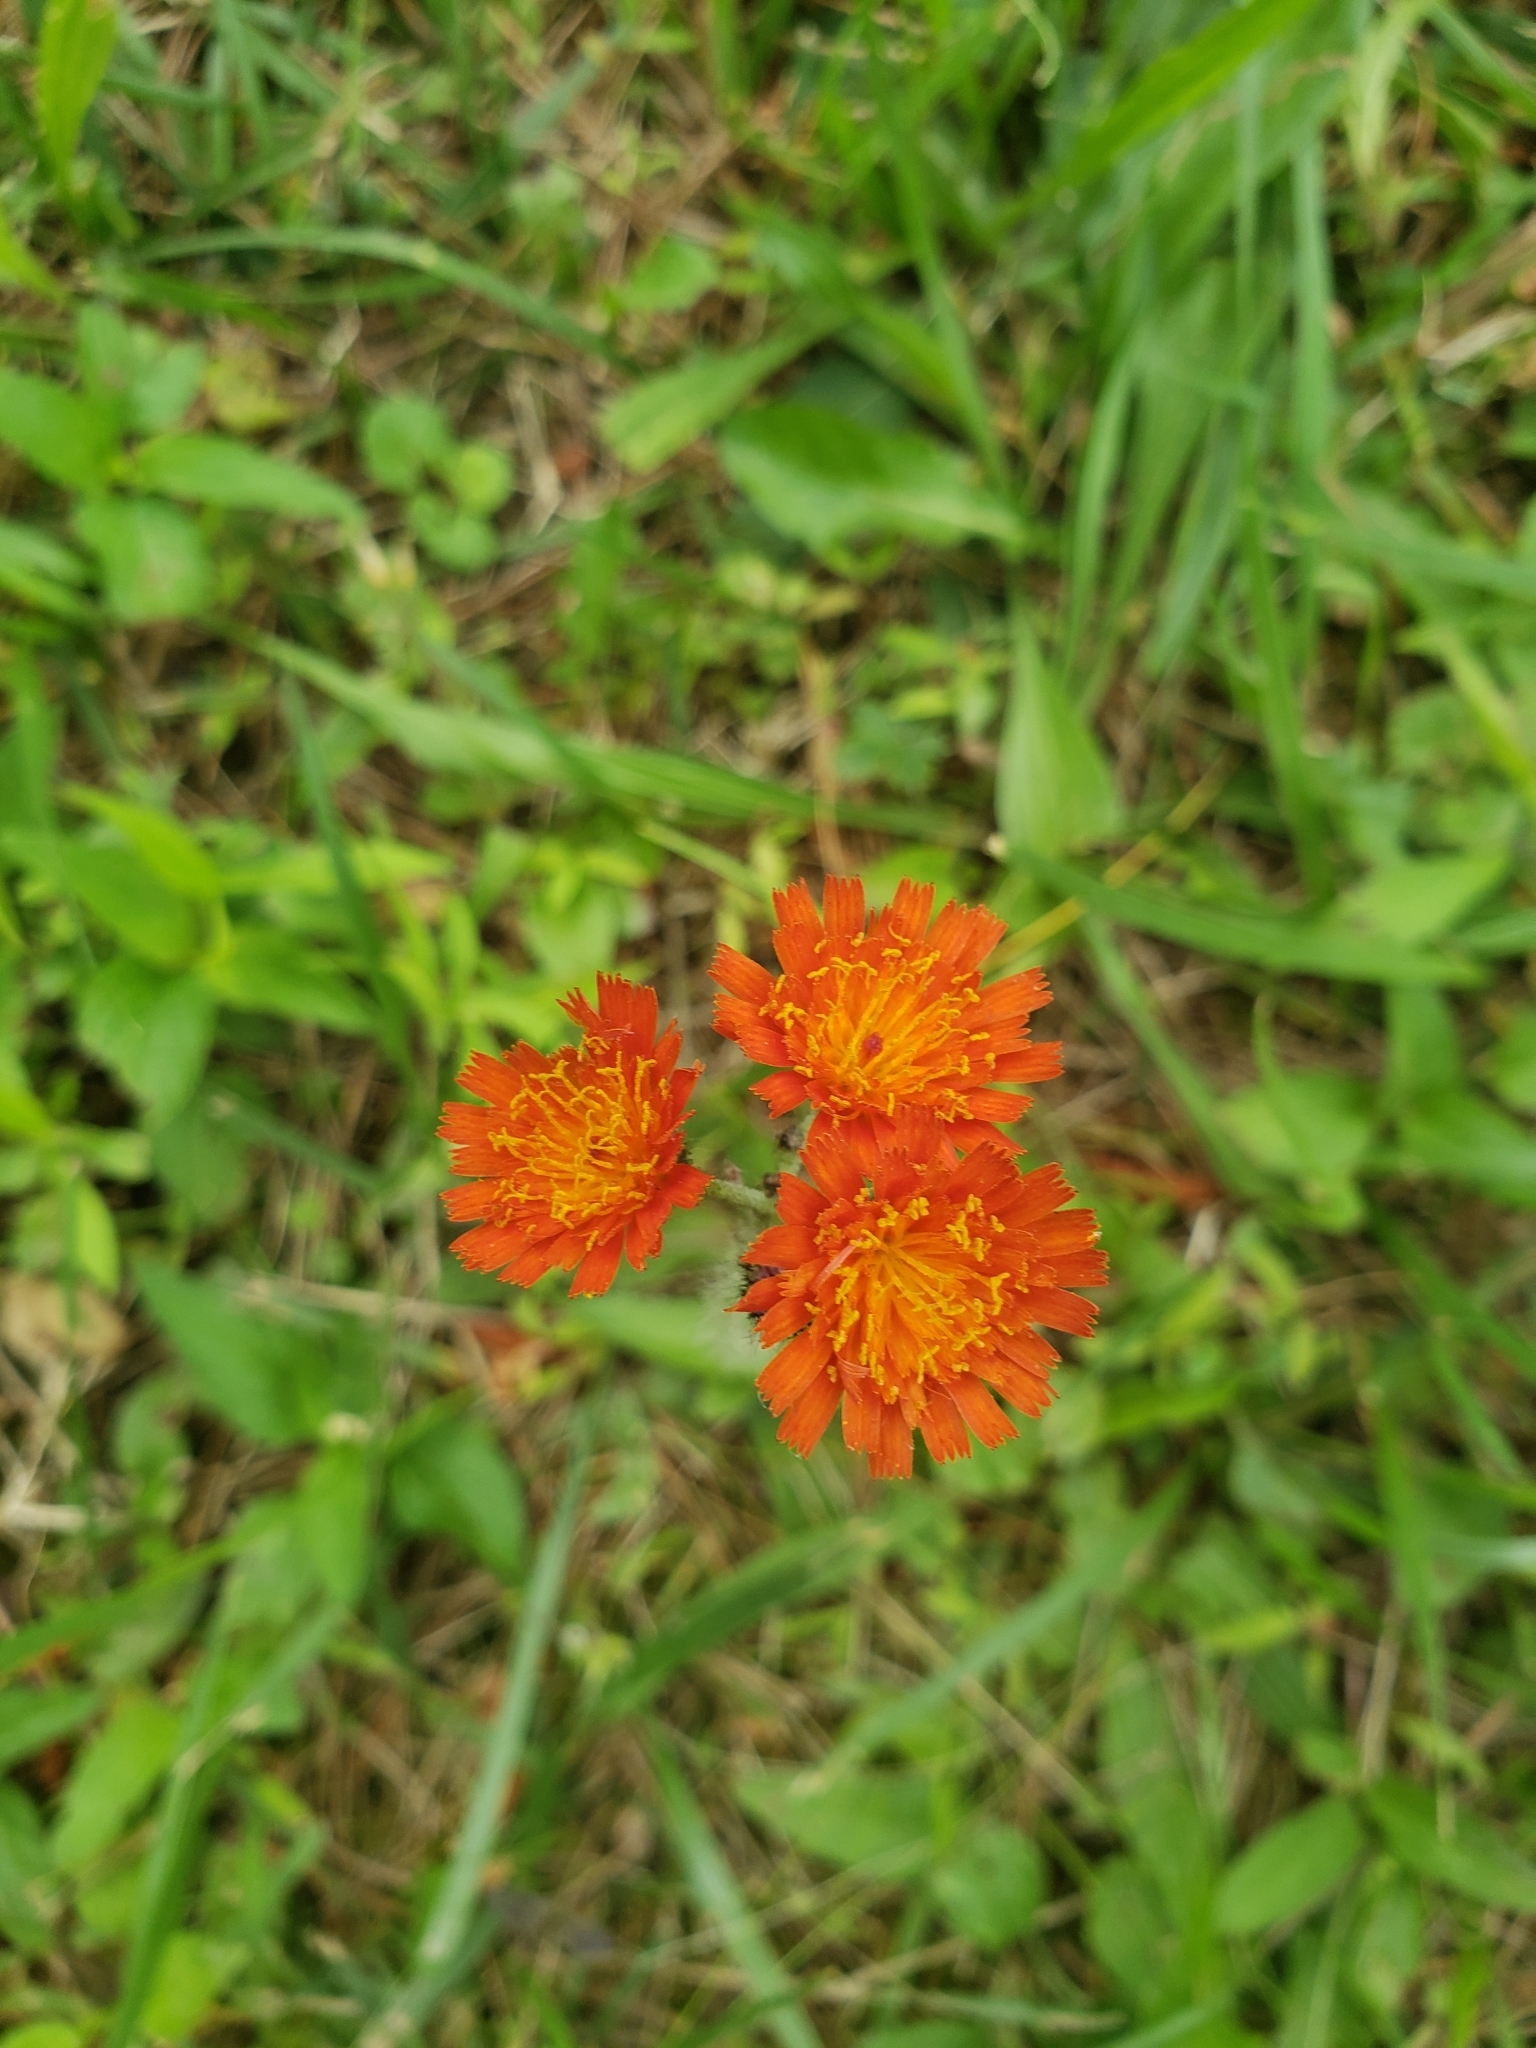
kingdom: Plantae
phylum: Tracheophyta
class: Magnoliopsida
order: Asterales
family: Asteraceae
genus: Pilosella
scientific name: Pilosella aurantiaca
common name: Fox-and-cubs
